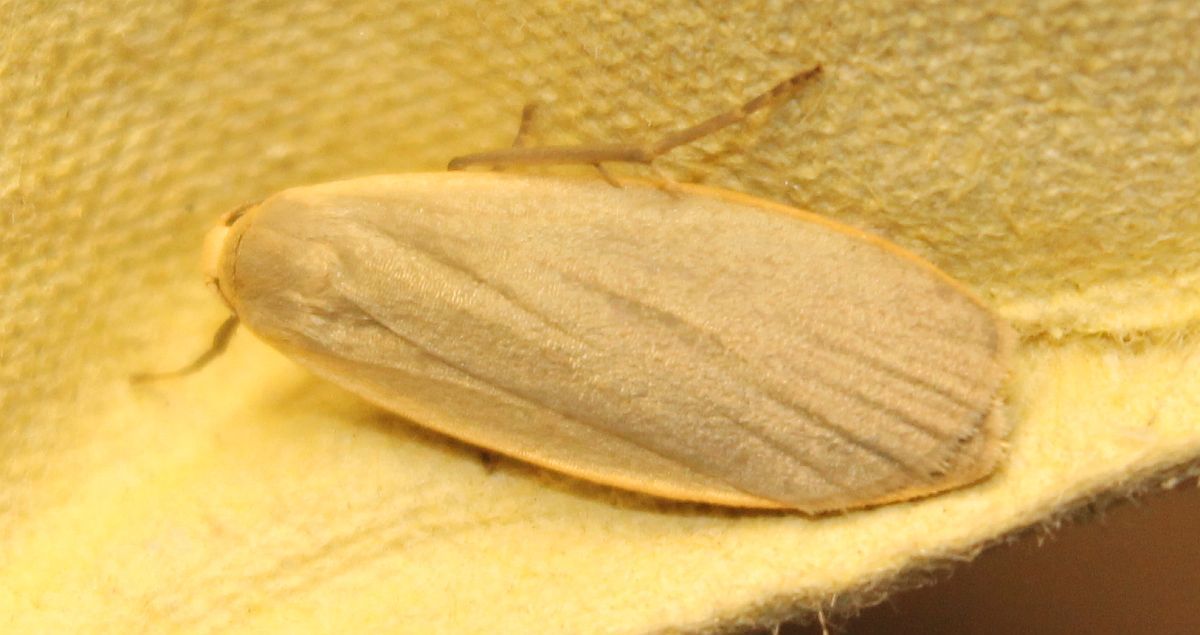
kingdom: Animalia
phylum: Arthropoda
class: Insecta
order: Lepidoptera
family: Erebidae
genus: Collita
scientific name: Collita griseola
